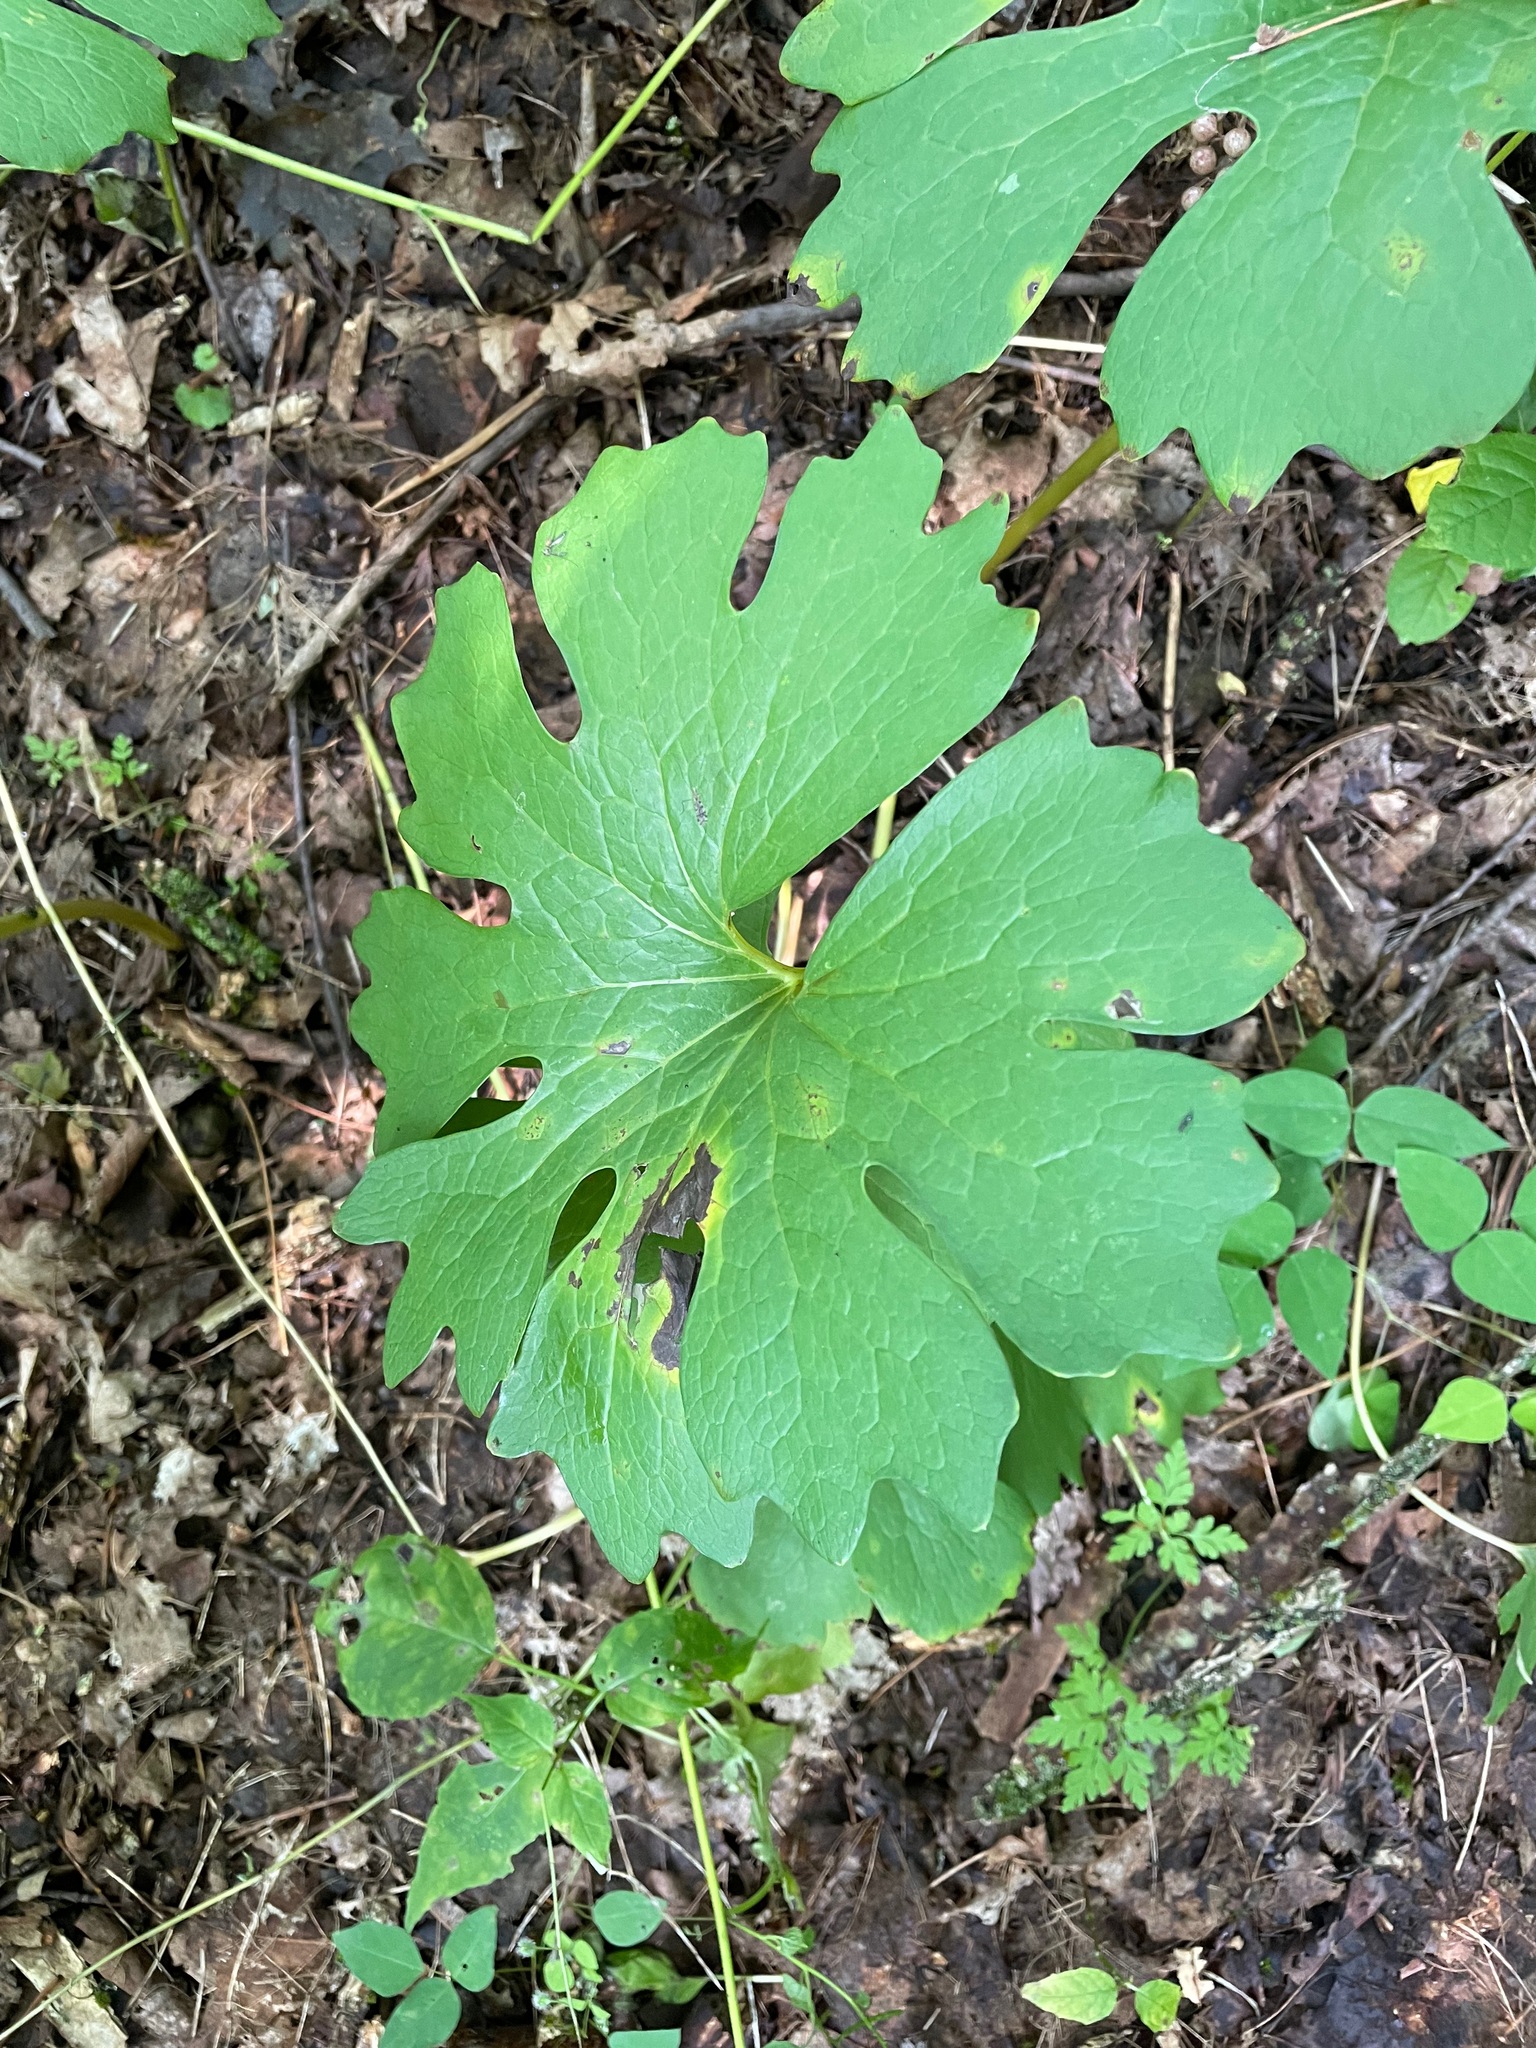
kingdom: Plantae
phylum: Tracheophyta
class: Magnoliopsida
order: Ranunculales
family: Papaveraceae
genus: Sanguinaria
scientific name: Sanguinaria canadensis
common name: Bloodroot
